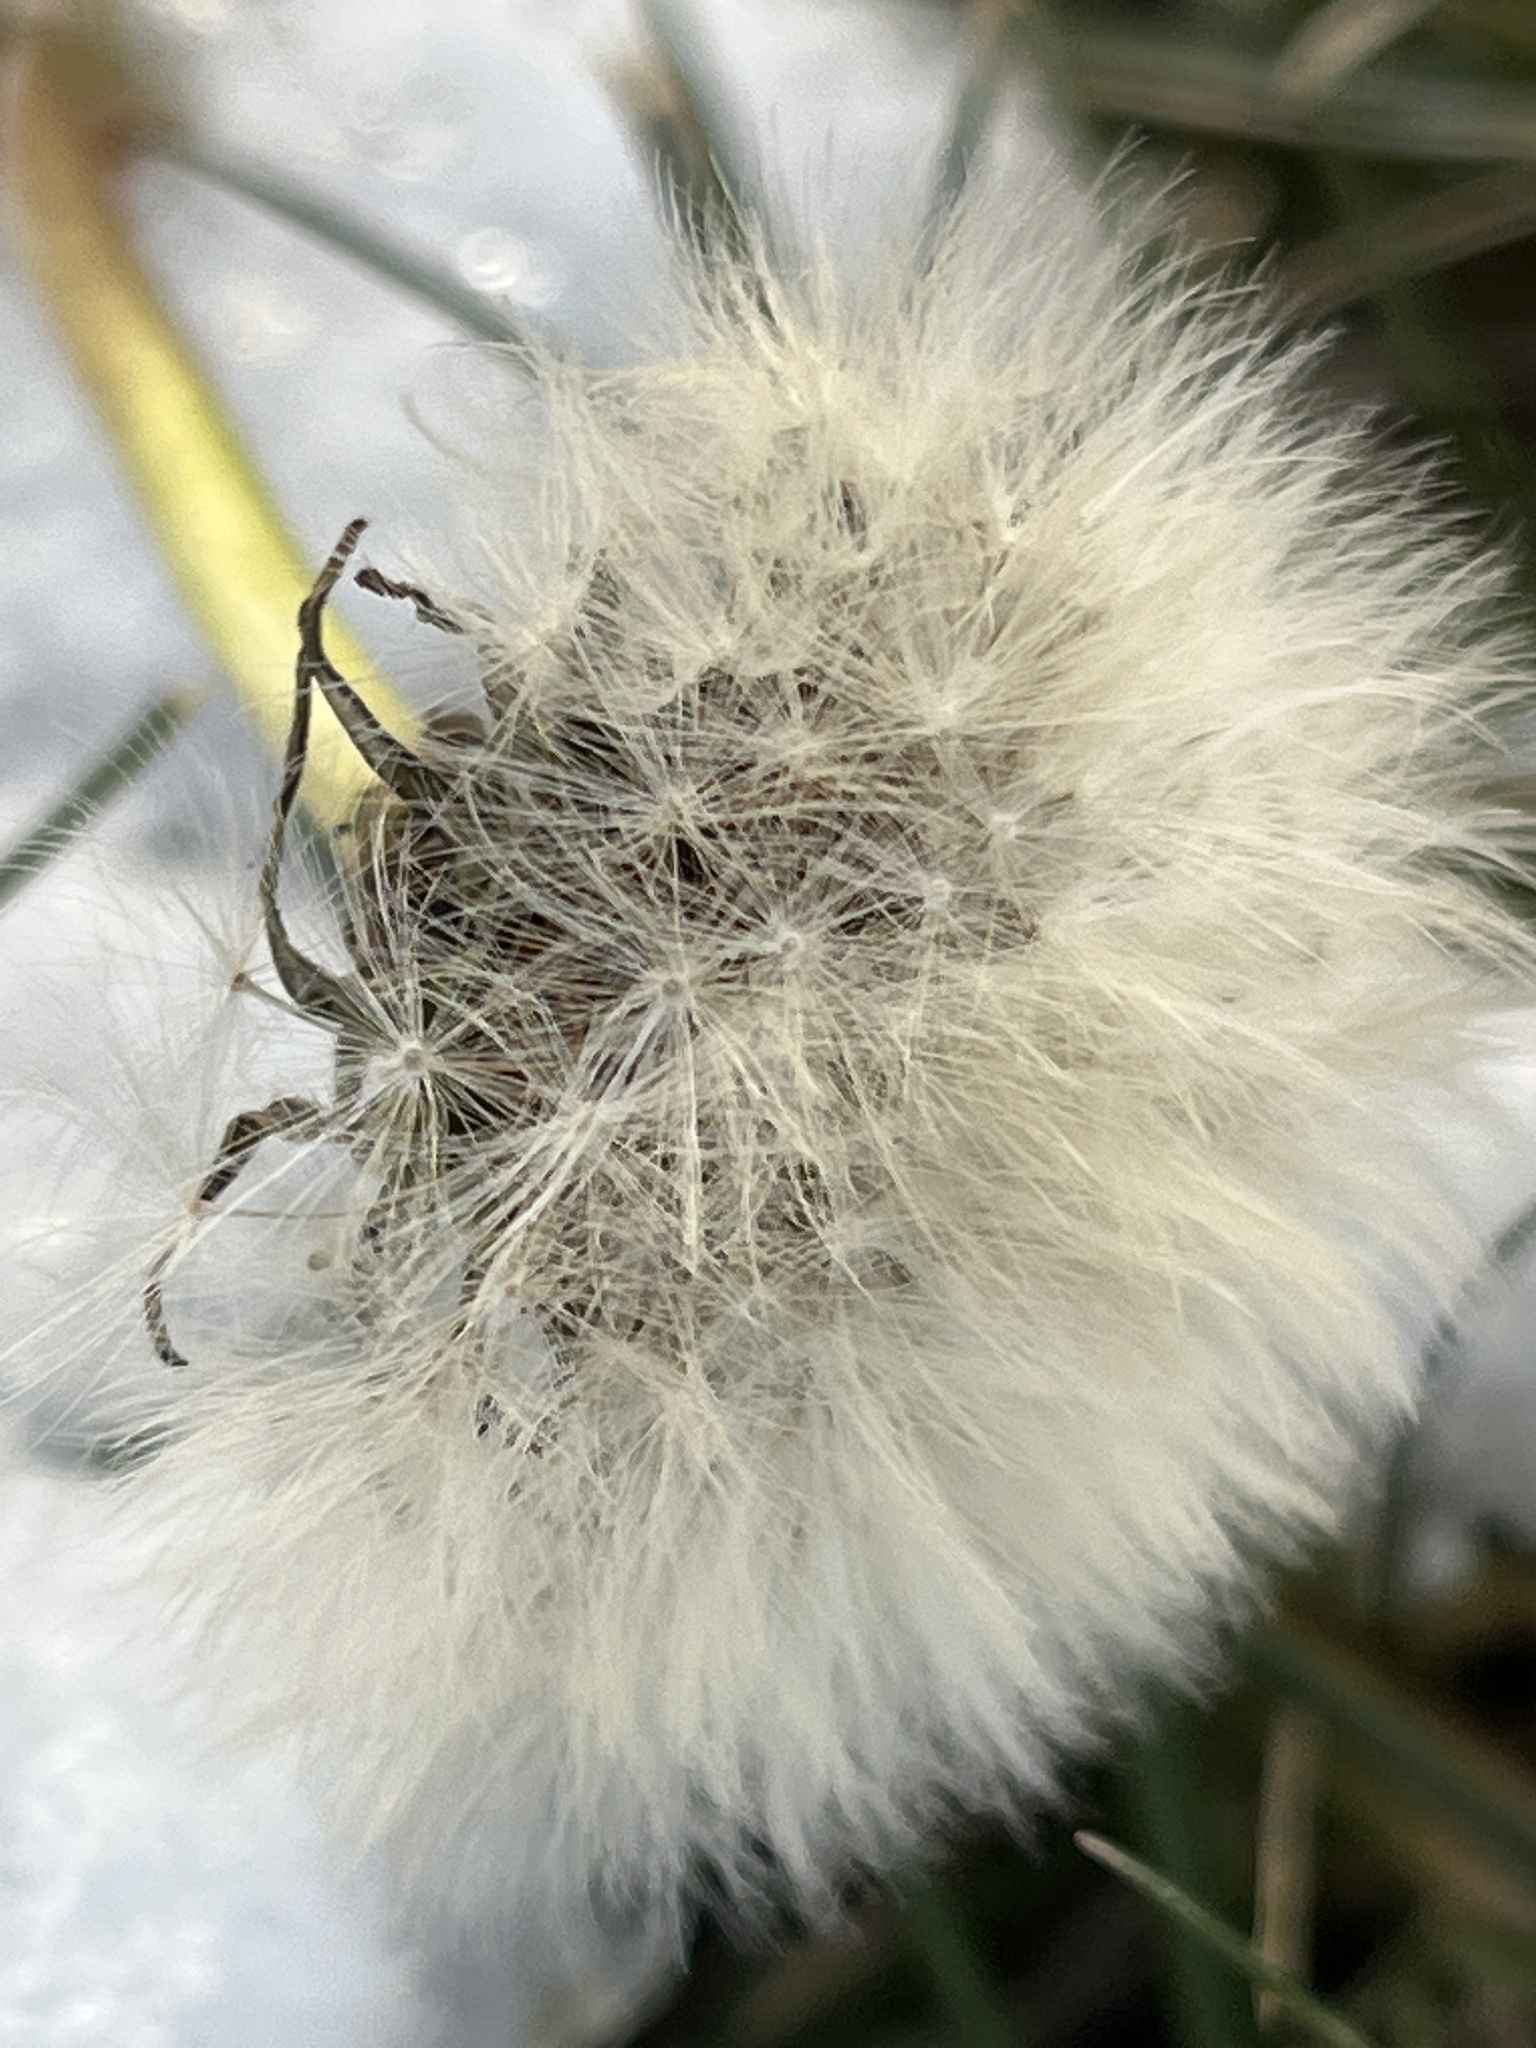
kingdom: Plantae
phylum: Tracheophyta
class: Magnoliopsida
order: Asterales
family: Asteraceae
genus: Taraxacum
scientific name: Taraxacum officinale
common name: Common dandelion
